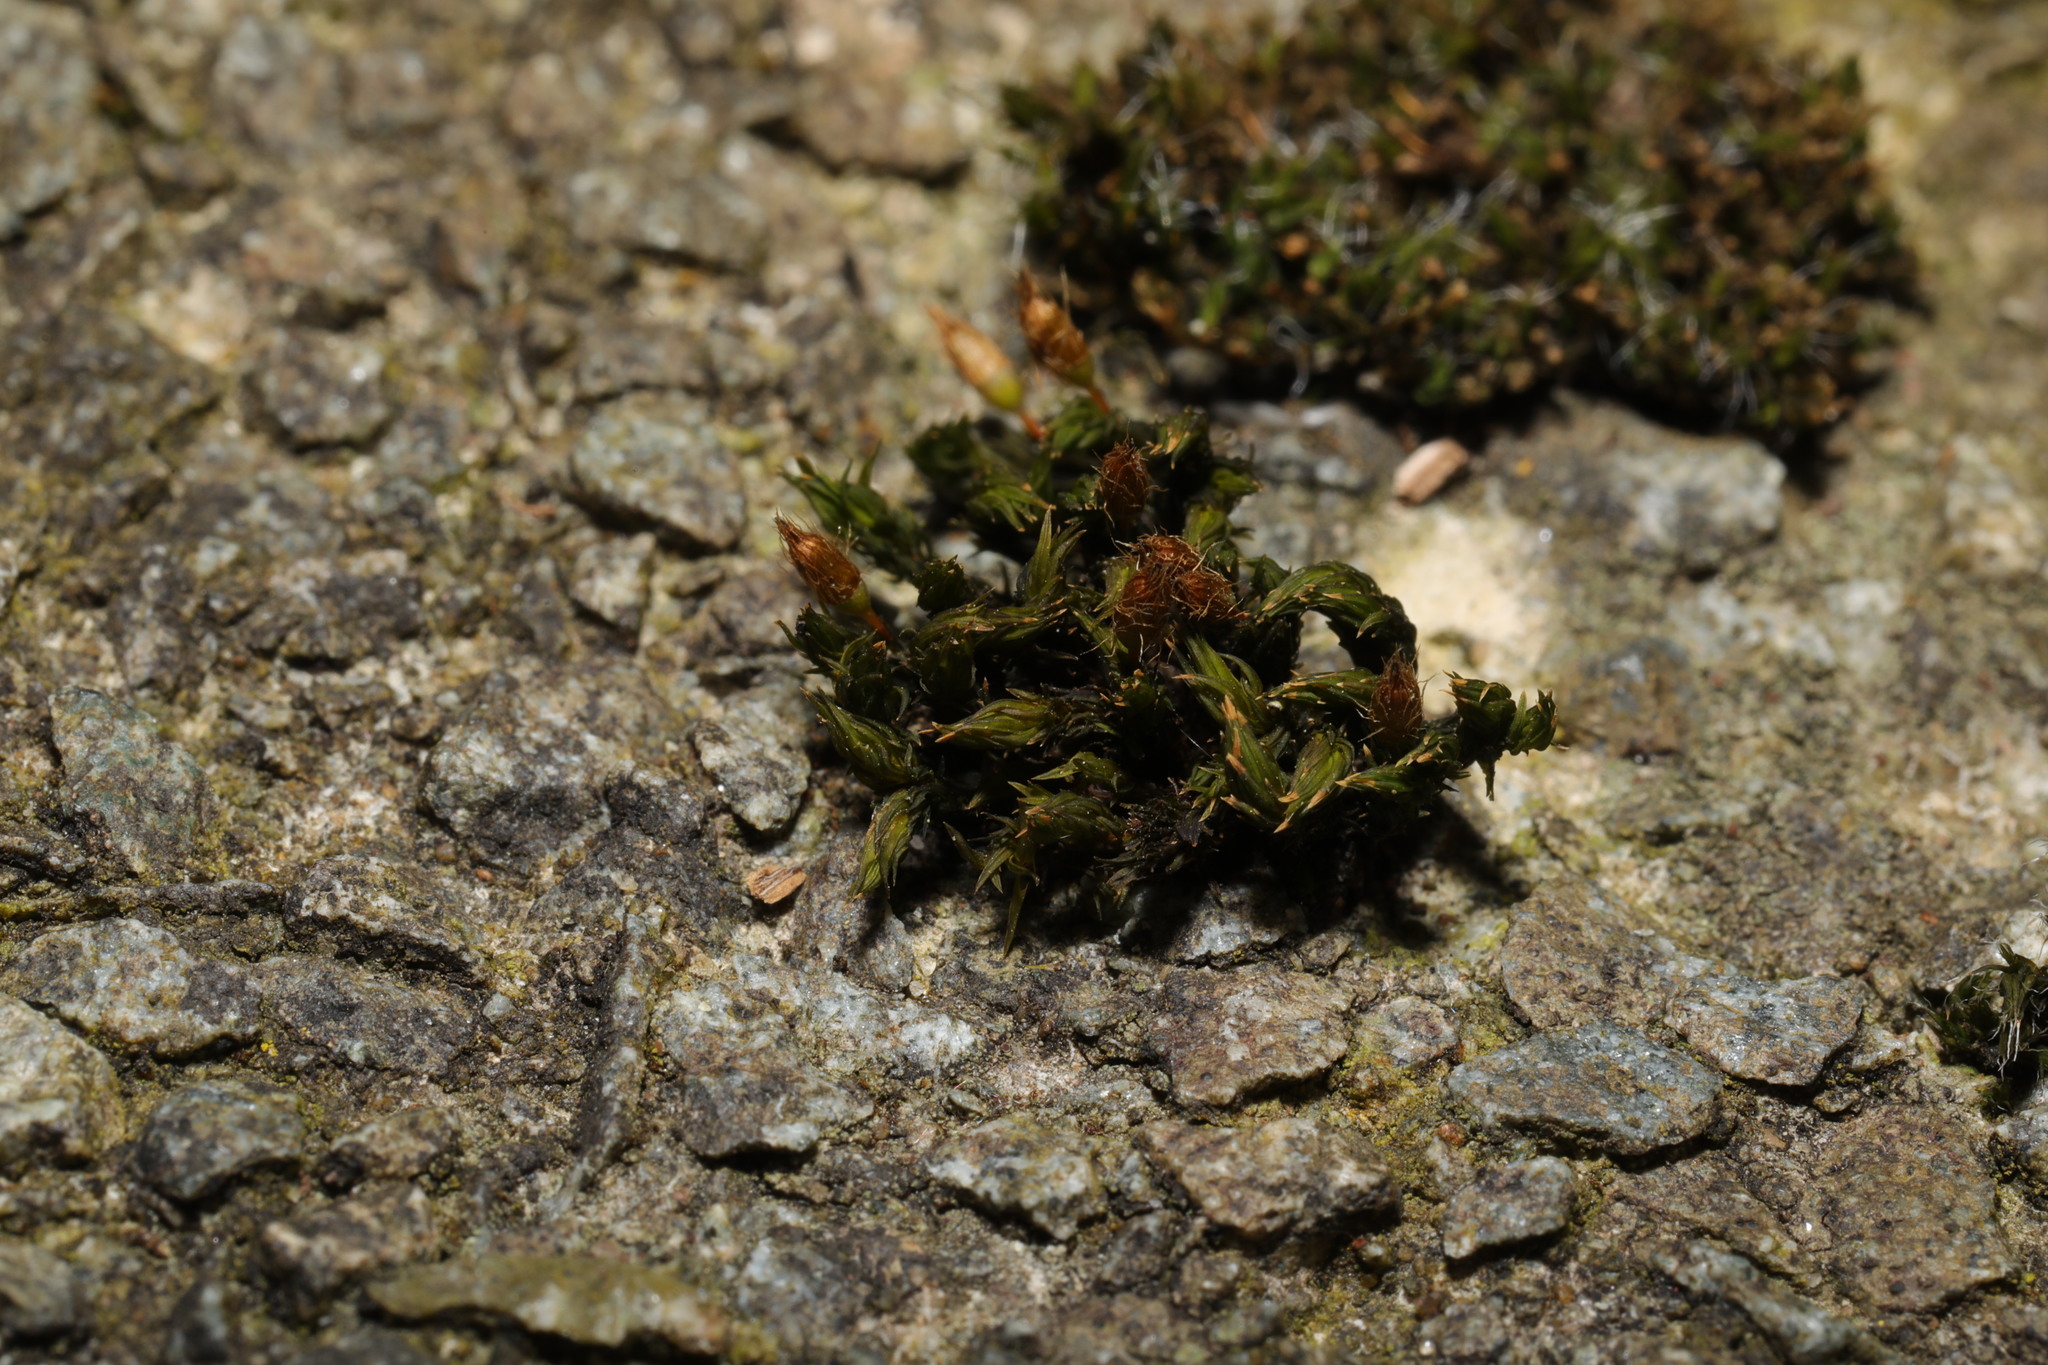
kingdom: Plantae
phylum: Bryophyta
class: Bryopsida
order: Orthotrichales
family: Orthotrichaceae
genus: Orthotrichum
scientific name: Orthotrichum anomalum
